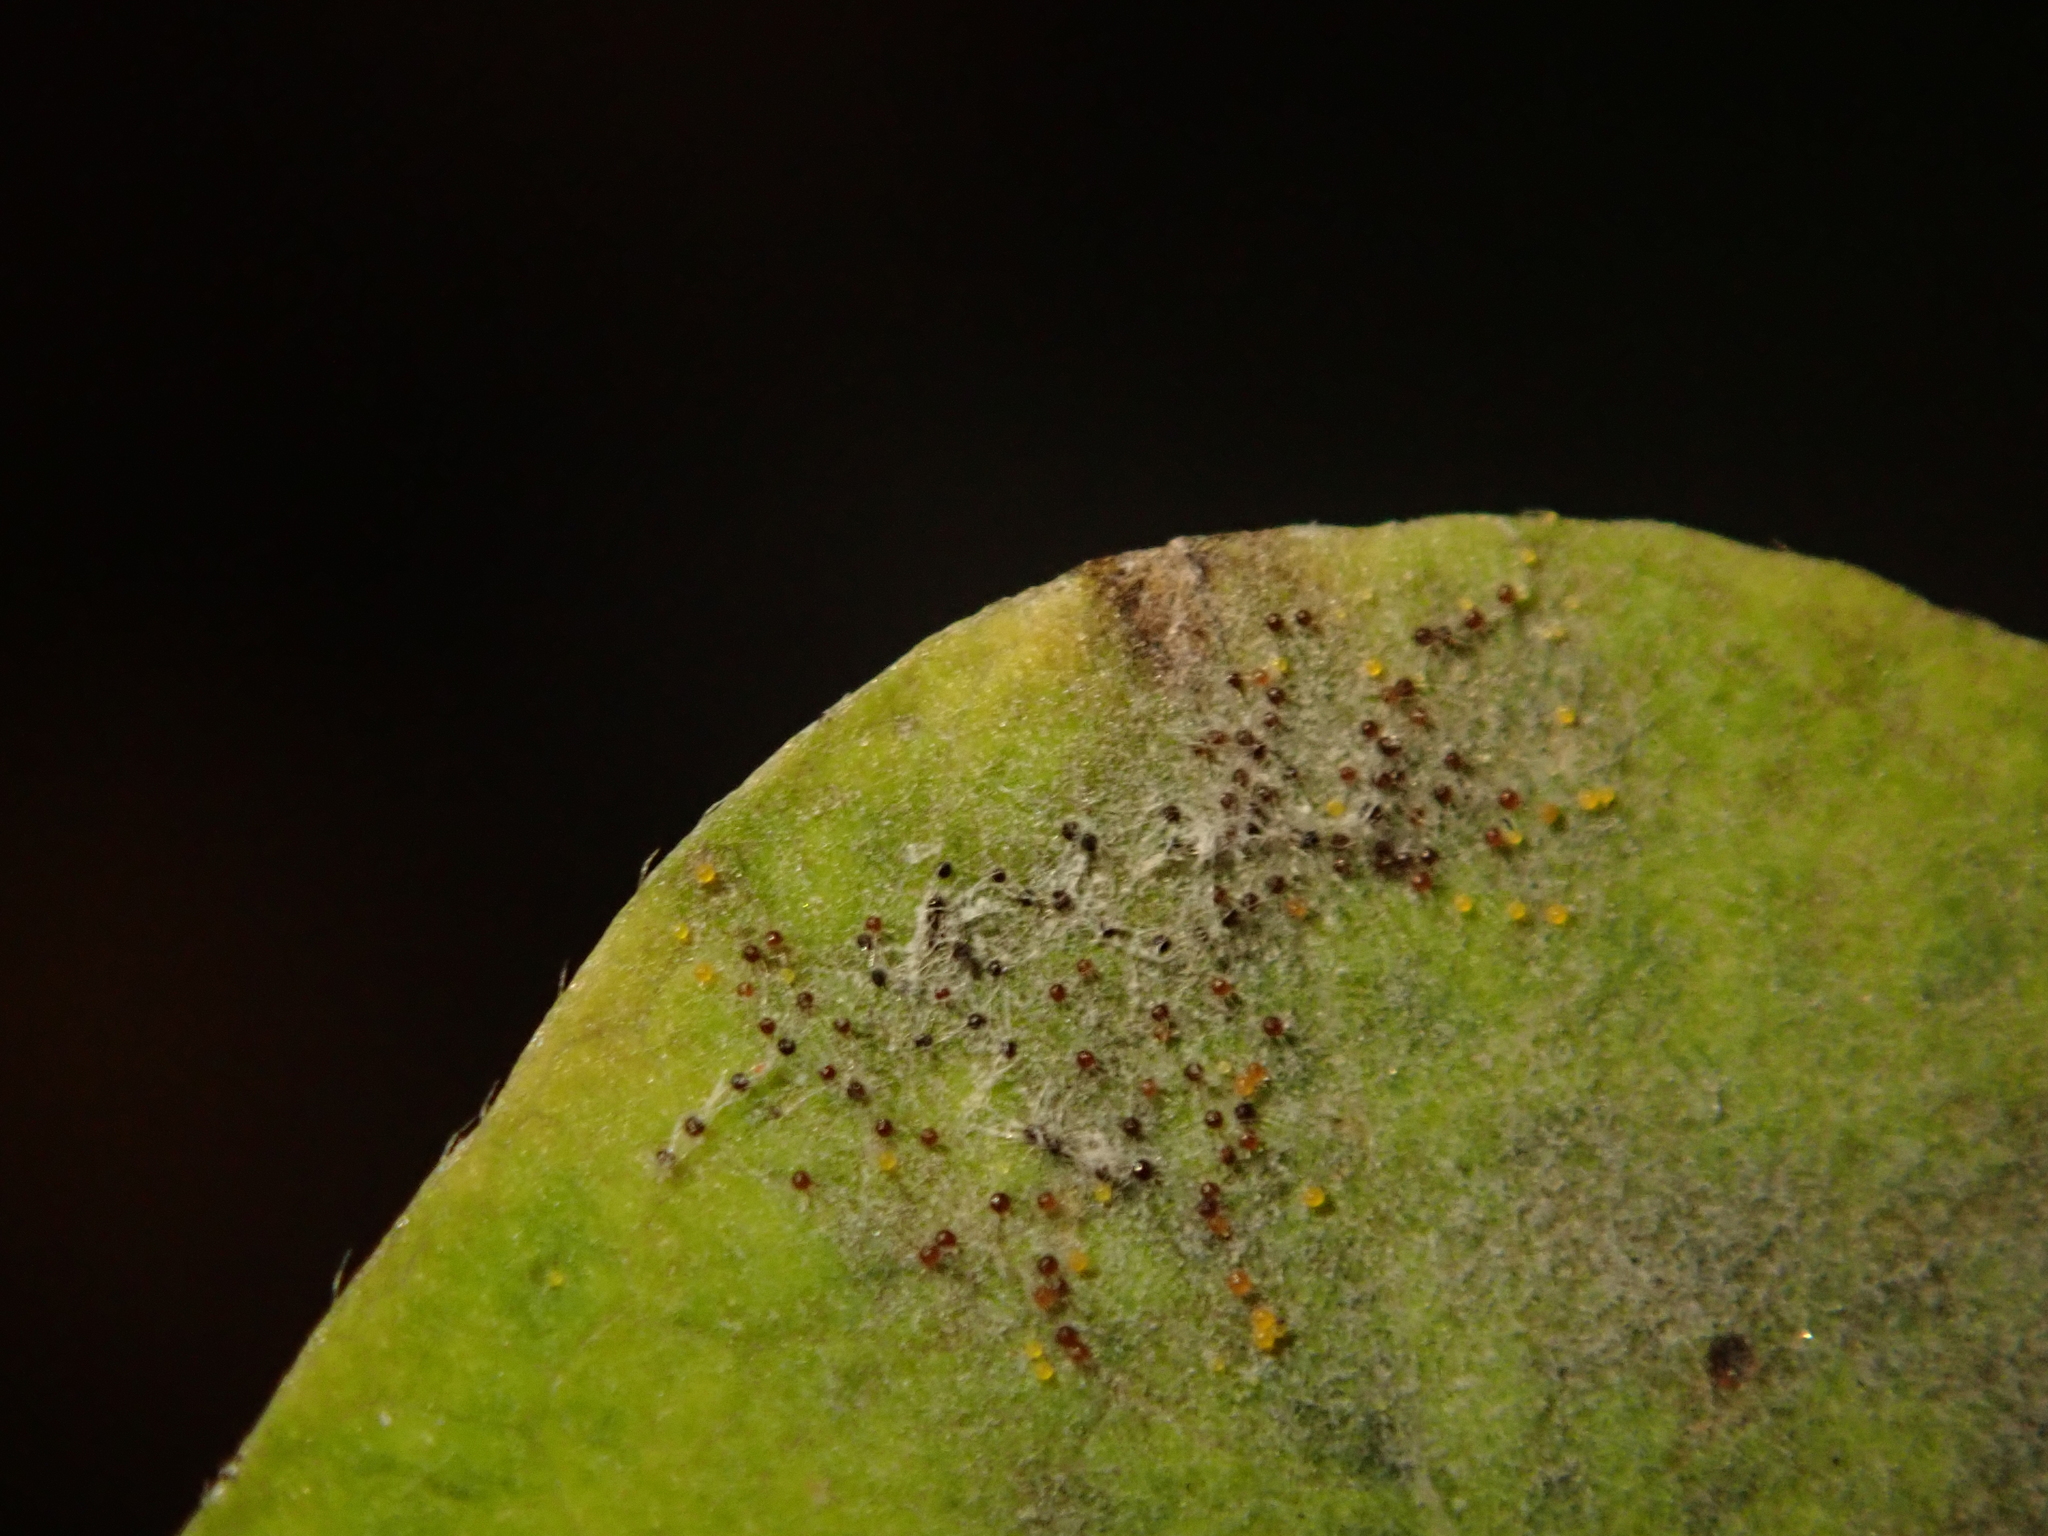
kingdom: Fungi
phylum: Ascomycota
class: Leotiomycetes
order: Helotiales
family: Erysiphaceae
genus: Erysiphe
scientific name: Erysiphe symphoricarpi
